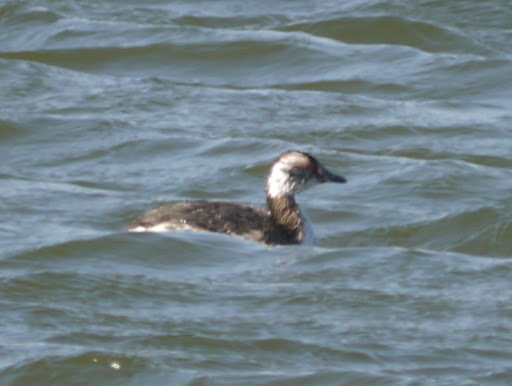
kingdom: Animalia
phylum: Chordata
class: Aves
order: Podicipediformes
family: Podicipedidae
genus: Podiceps
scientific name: Podiceps auritus
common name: Horned grebe
